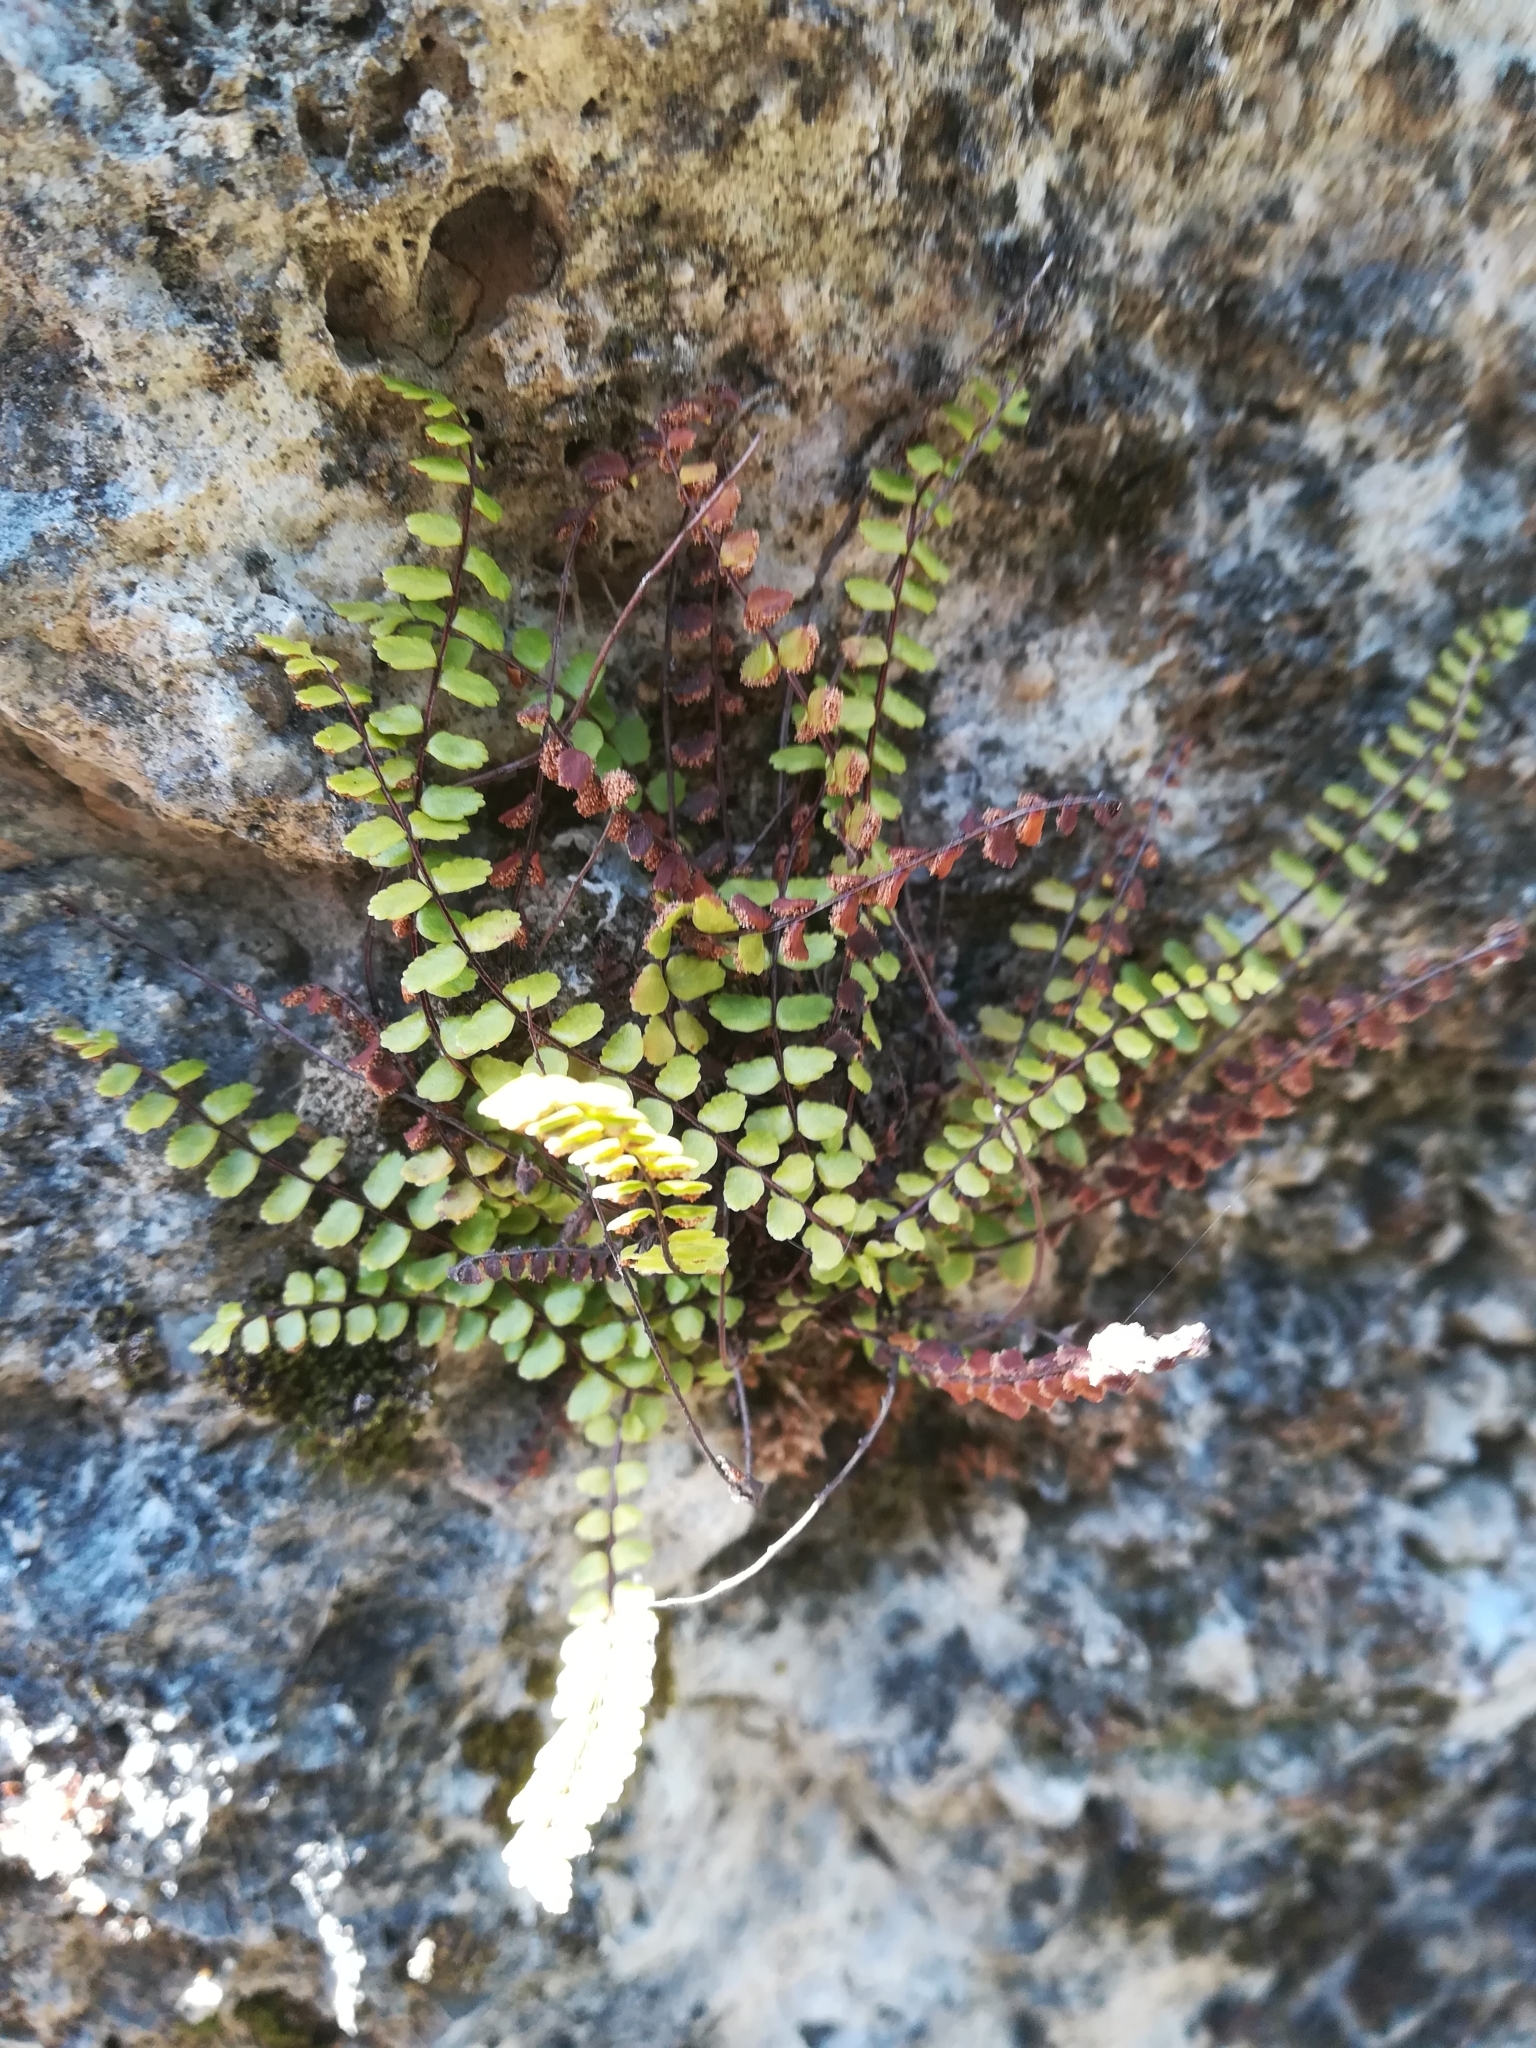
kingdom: Plantae
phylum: Tracheophyta
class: Polypodiopsida
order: Polypodiales
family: Aspleniaceae
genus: Asplenium
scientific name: Asplenium trichomanes
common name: Maidenhair spleenwort
